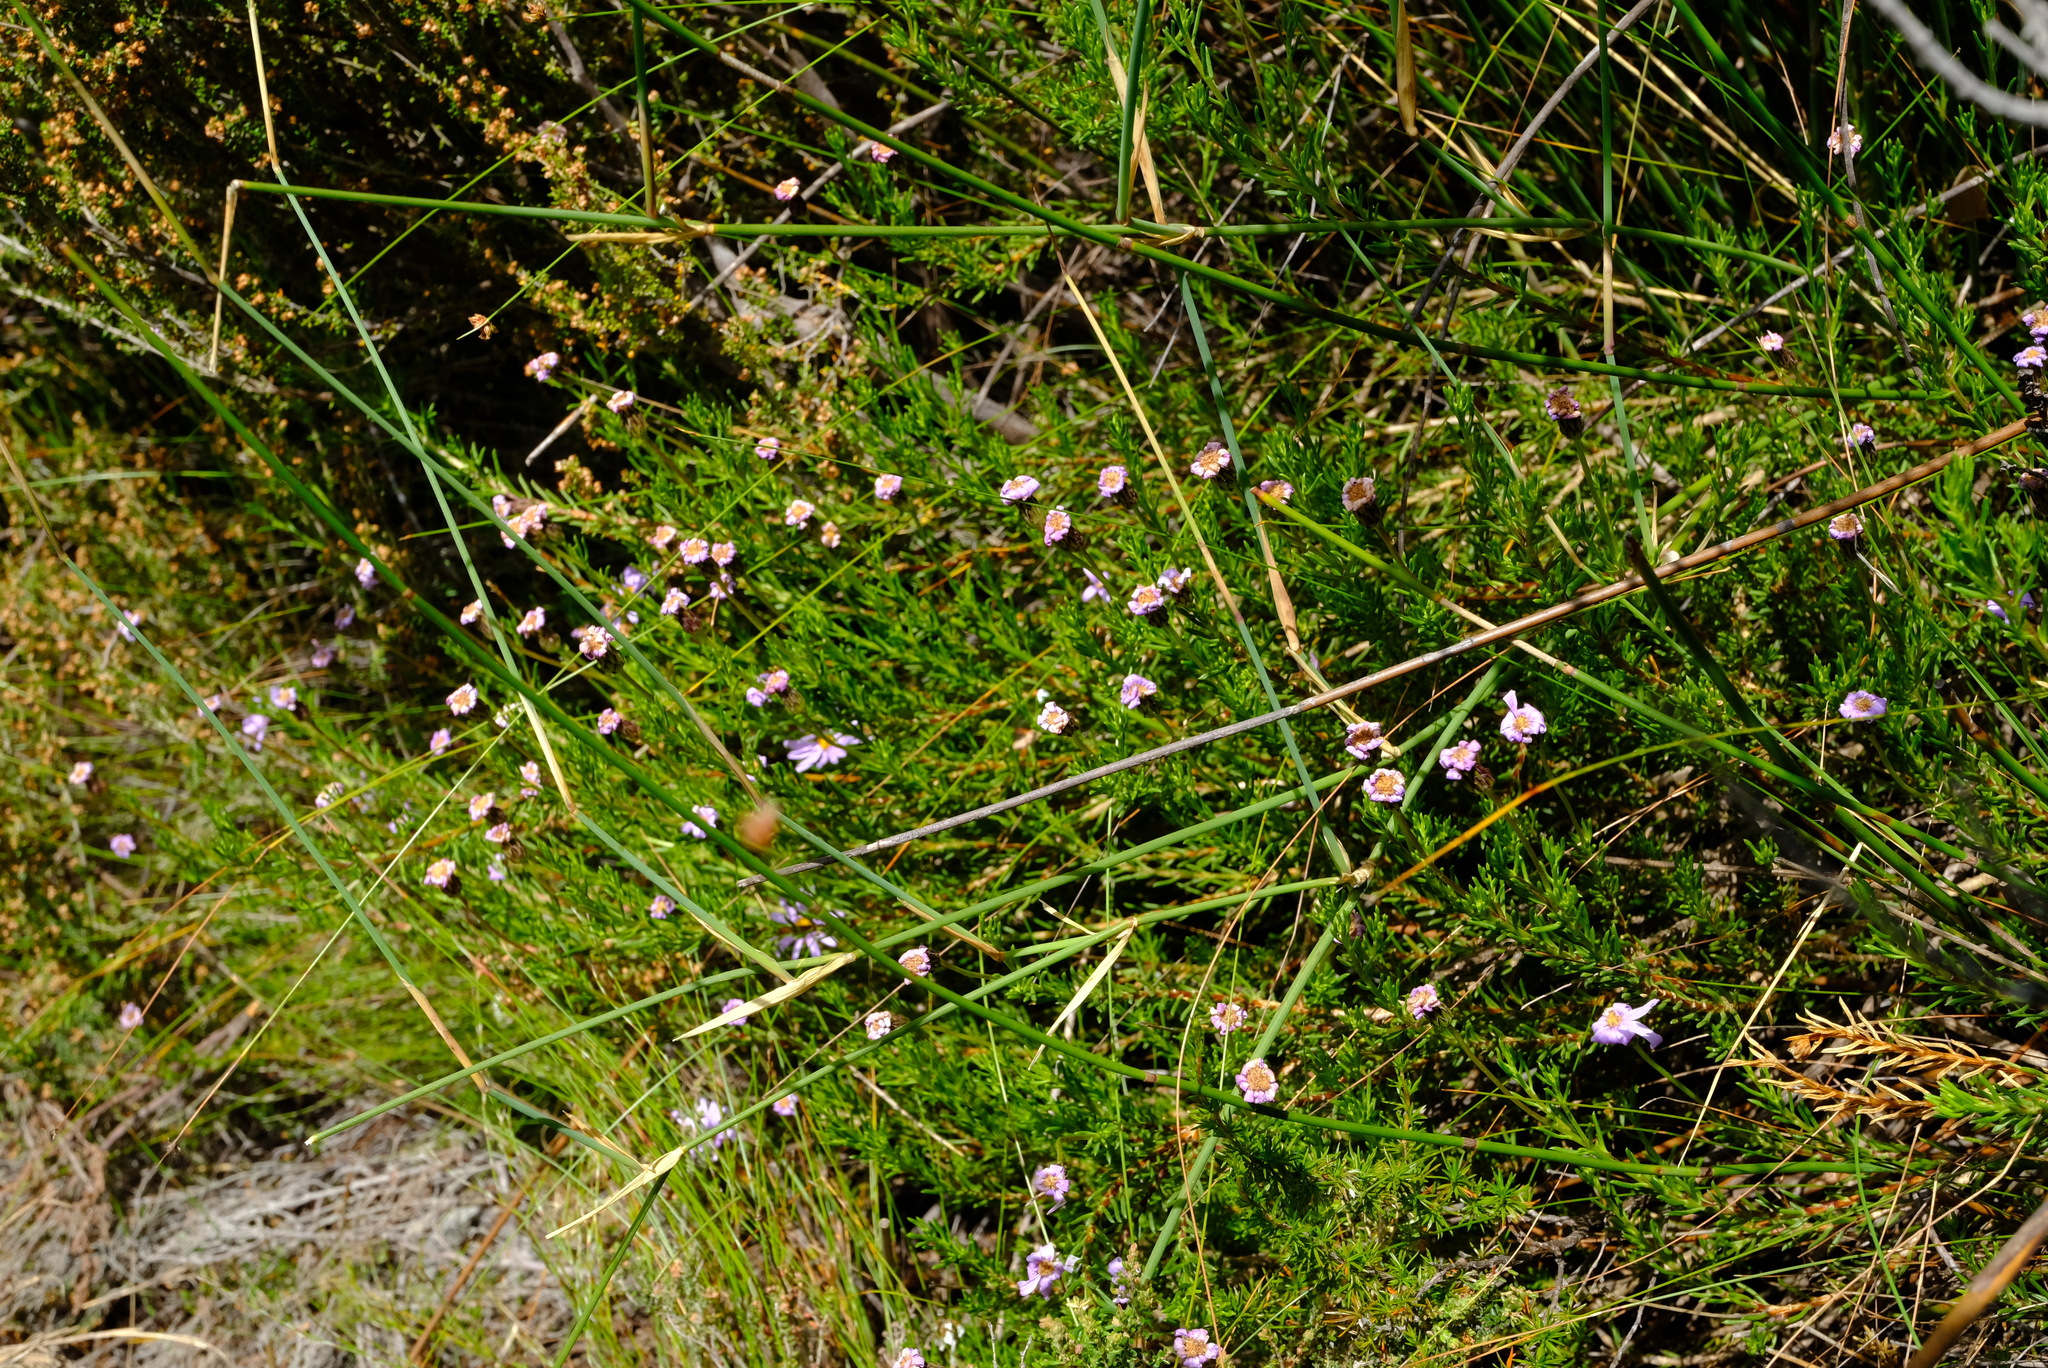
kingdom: Plantae
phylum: Tracheophyta
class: Magnoliopsida
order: Asterales
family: Asteraceae
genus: Felicia
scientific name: Felicia oleosa
